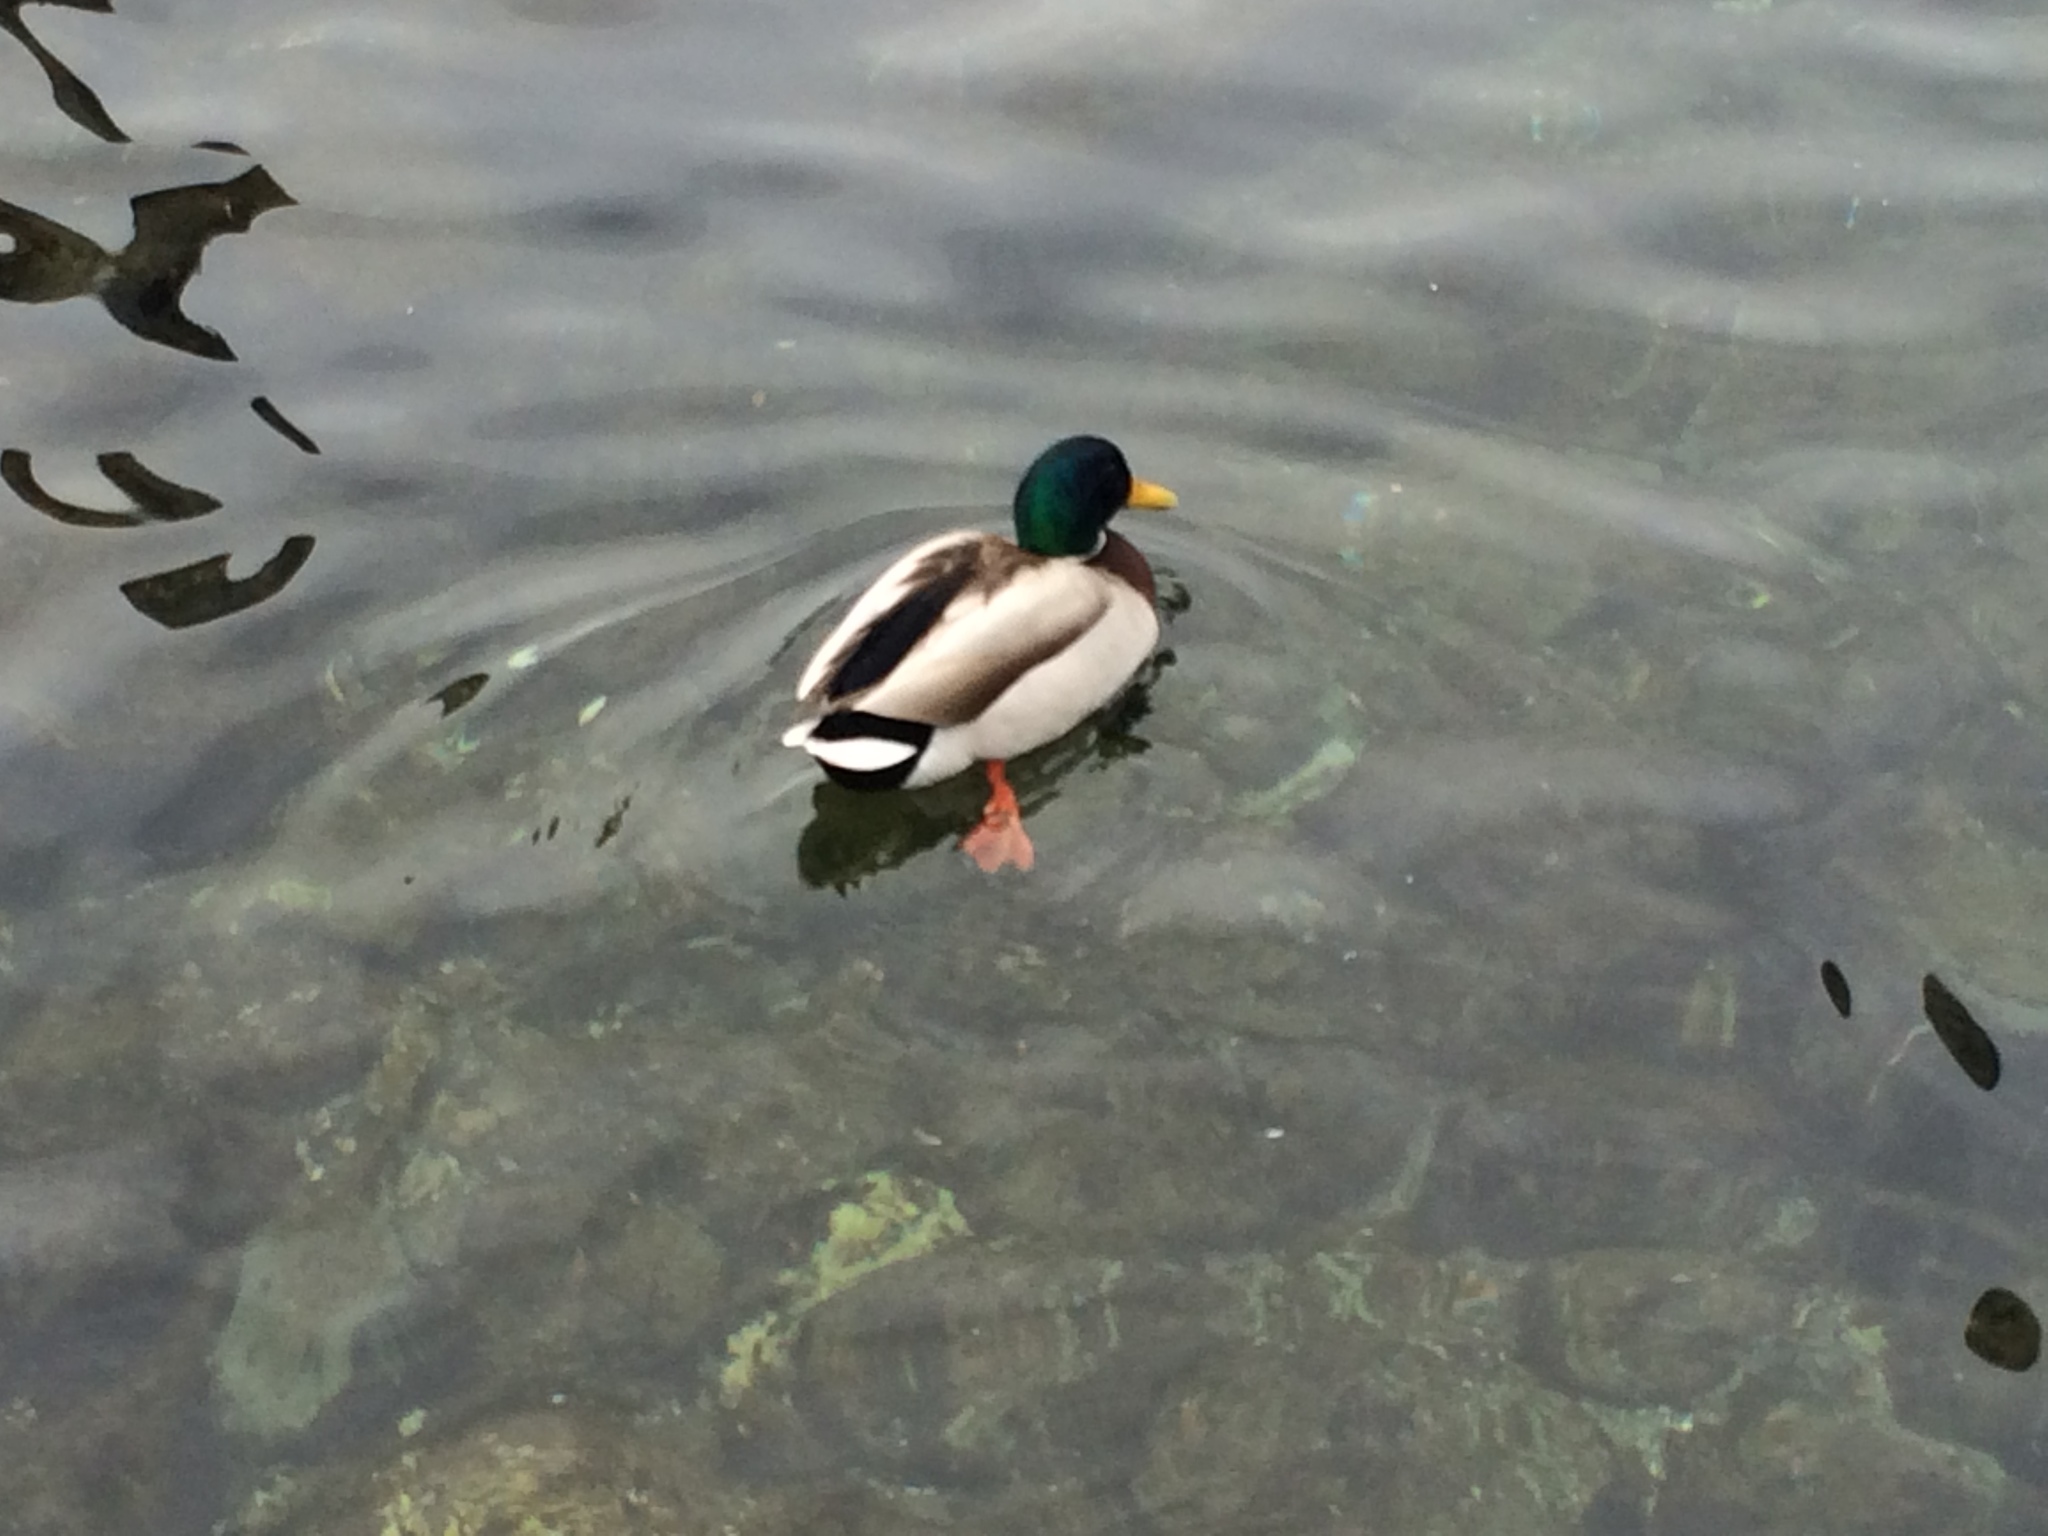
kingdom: Animalia
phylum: Chordata
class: Aves
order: Anseriformes
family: Anatidae
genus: Anas
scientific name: Anas platyrhynchos
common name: Mallard
